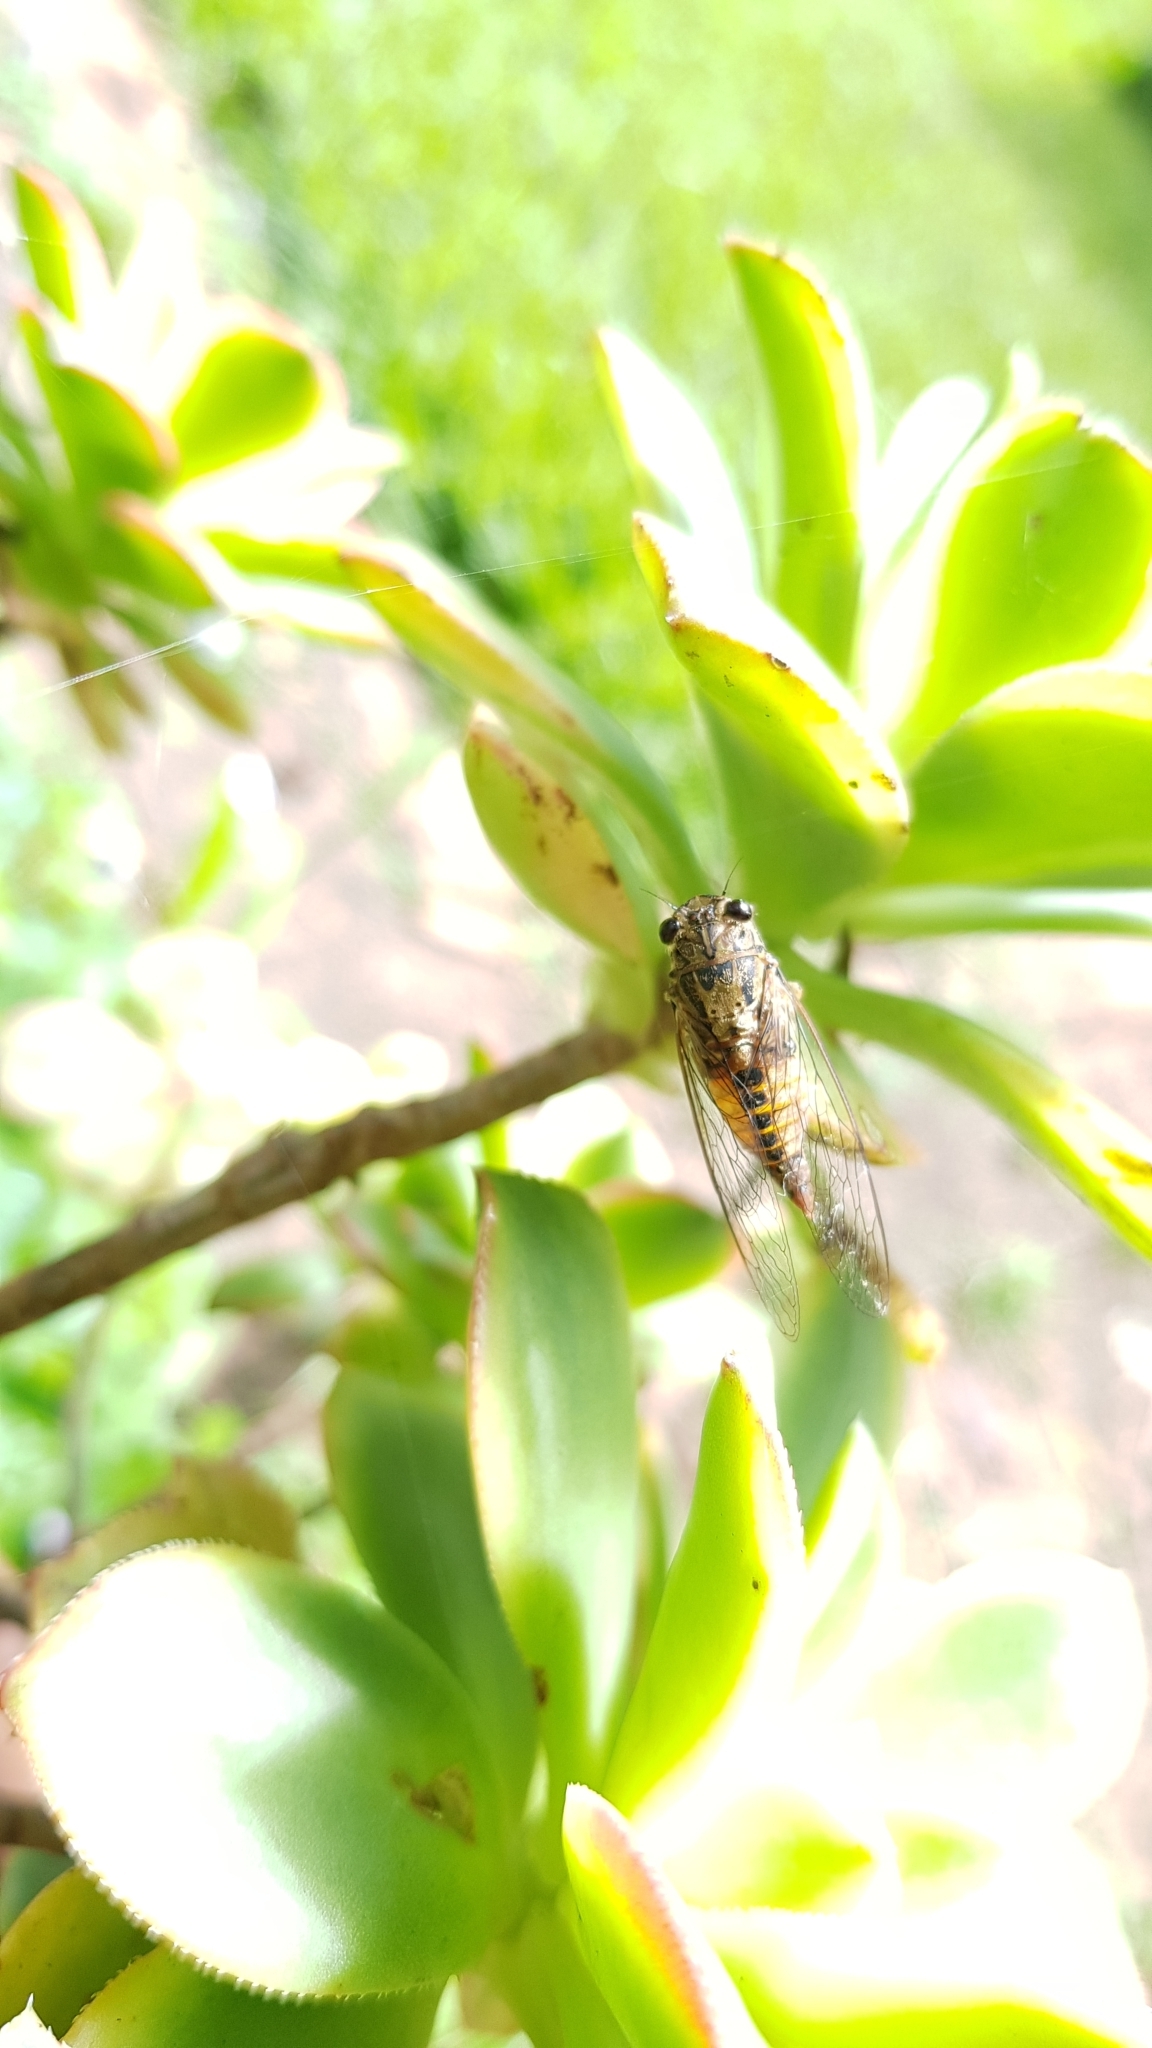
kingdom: Animalia
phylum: Arthropoda
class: Insecta
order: Hemiptera
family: Cicadidae
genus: Yoyetta
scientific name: Yoyetta celis
